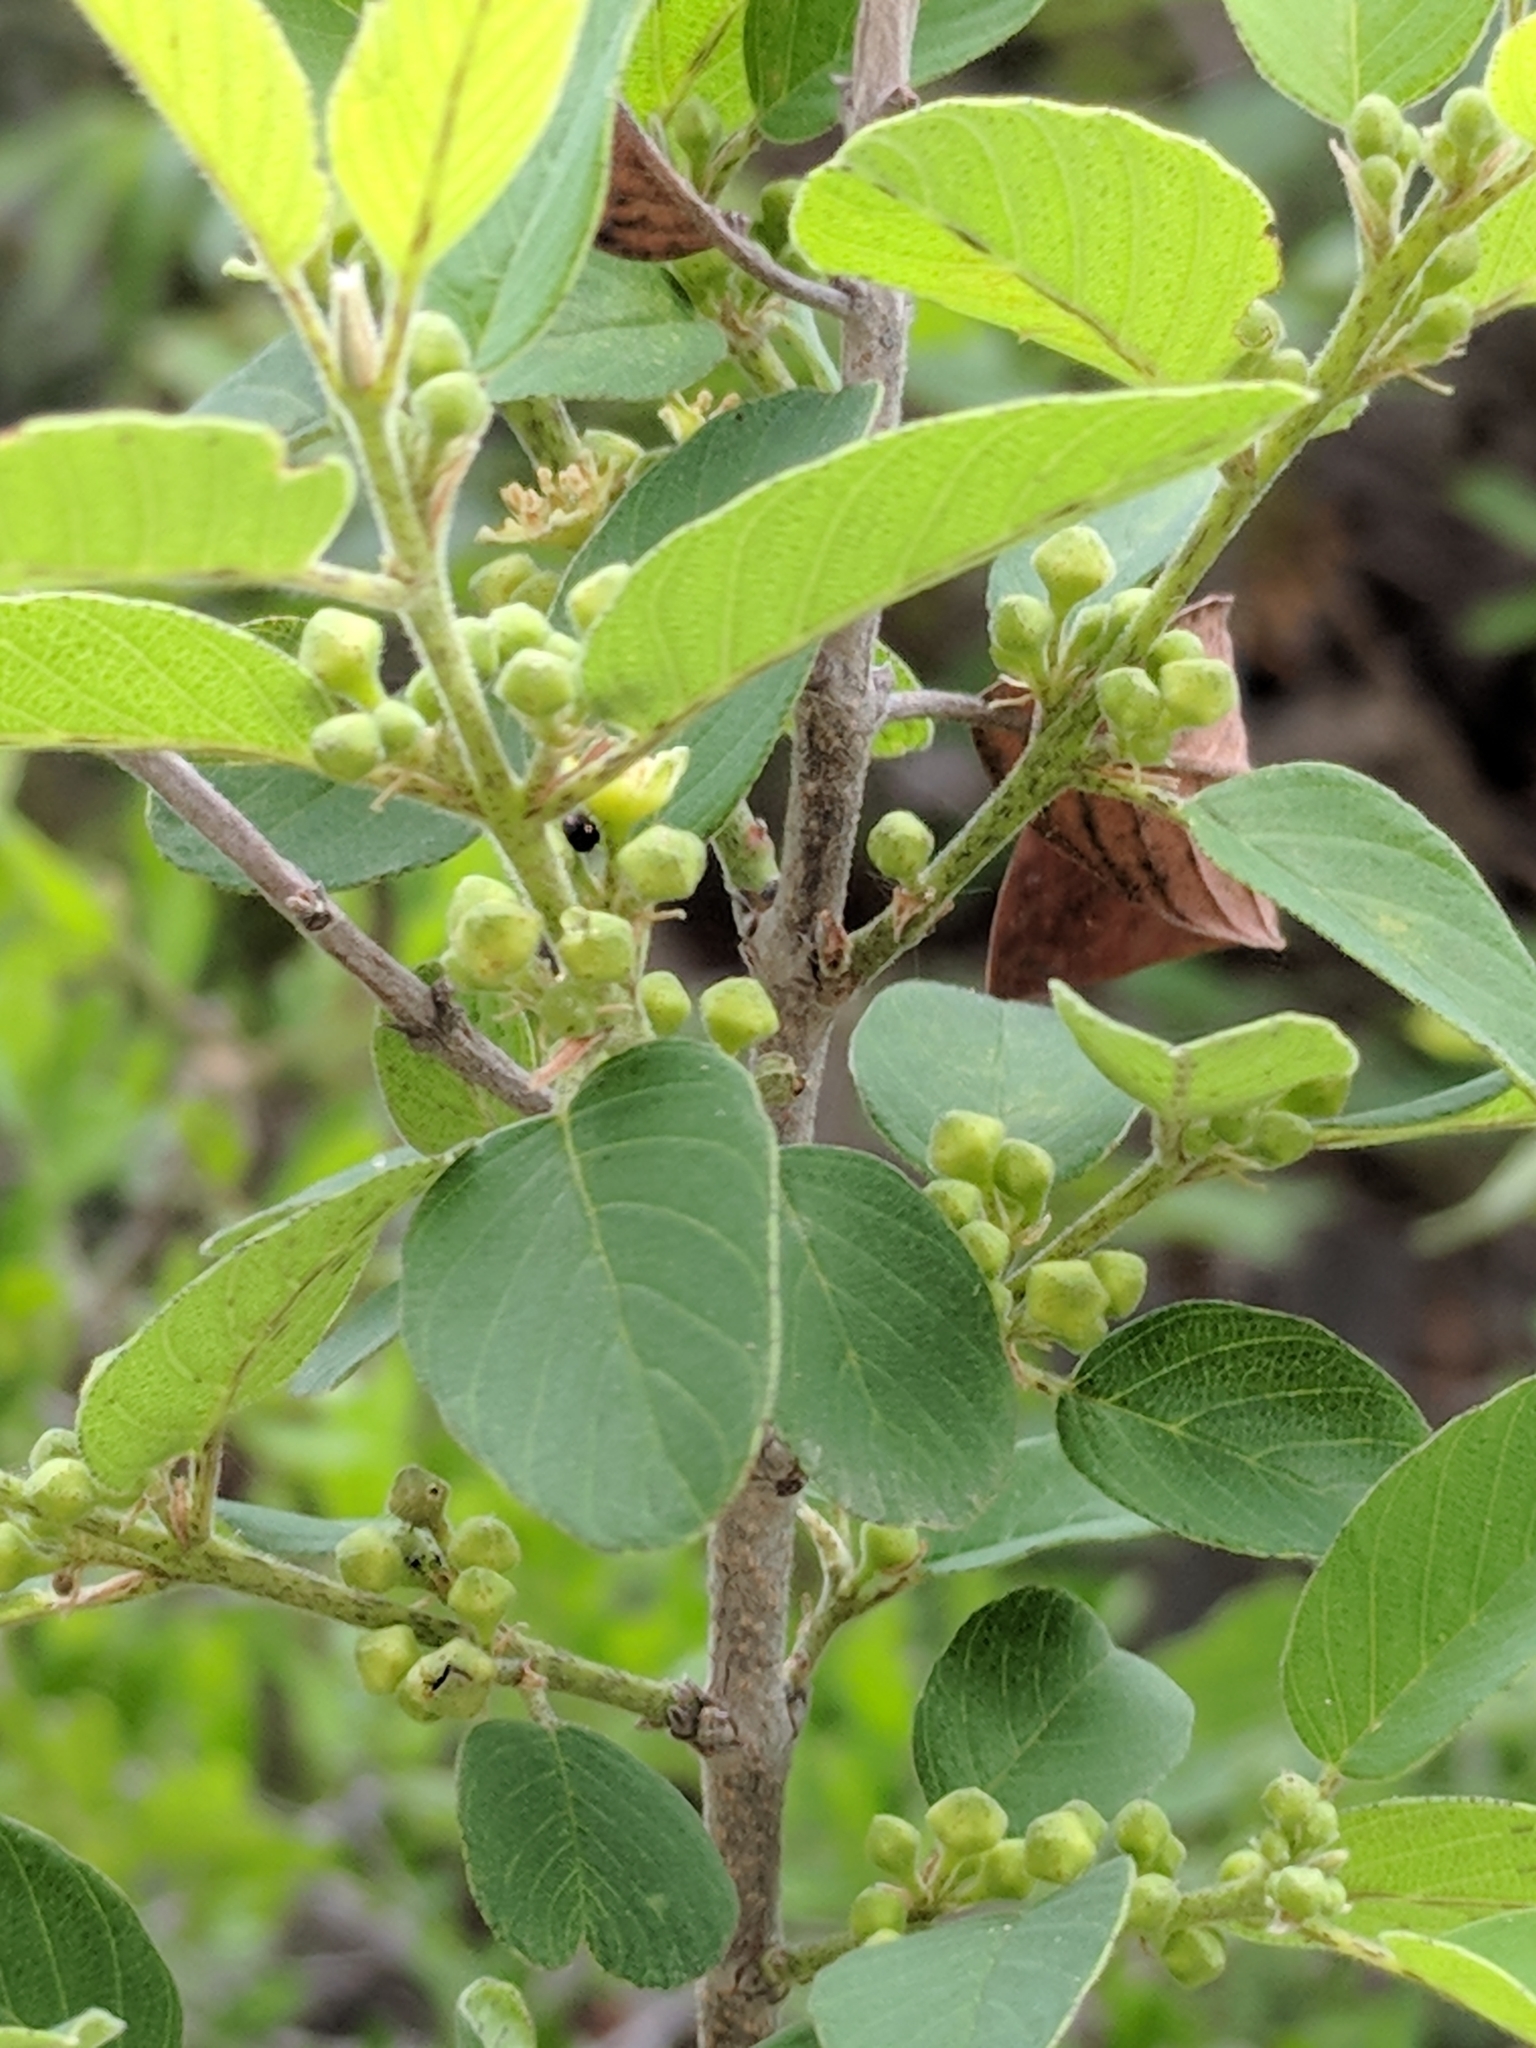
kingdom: Plantae
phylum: Tracheophyta
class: Magnoliopsida
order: Rosales
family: Rhamnaceae
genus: Karwinskia
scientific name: Karwinskia humboldtiana
